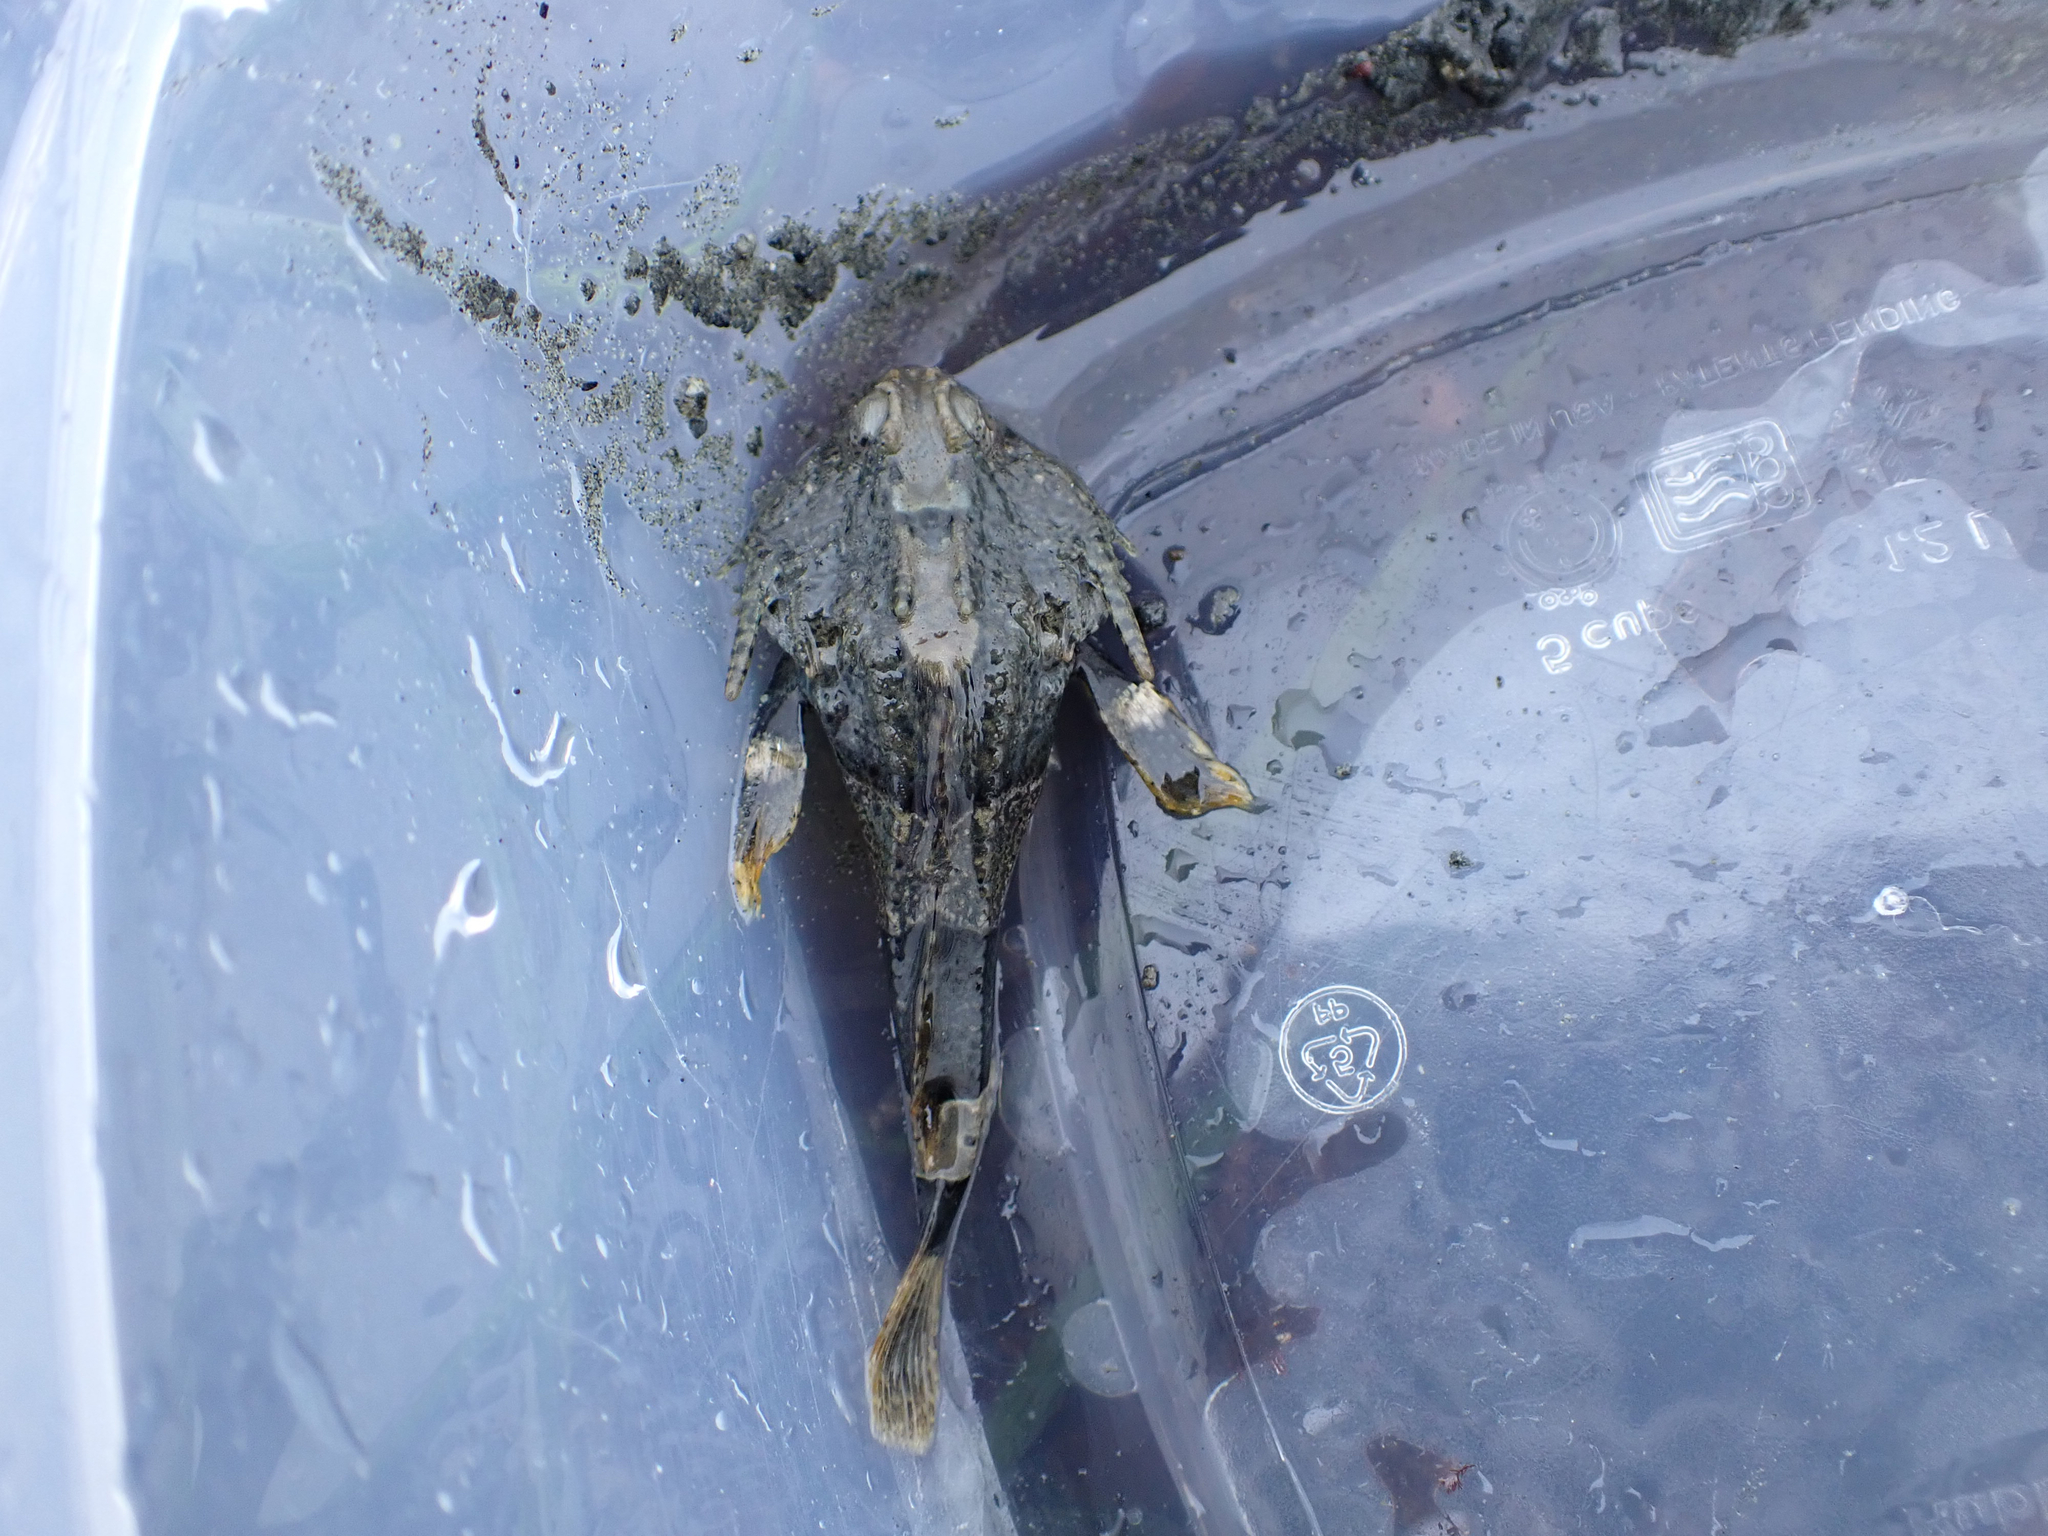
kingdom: Animalia
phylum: Chordata
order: Scorpaeniformes
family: Cottidae
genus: Enophrys
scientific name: Enophrys bison
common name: Buffalo sculpin
